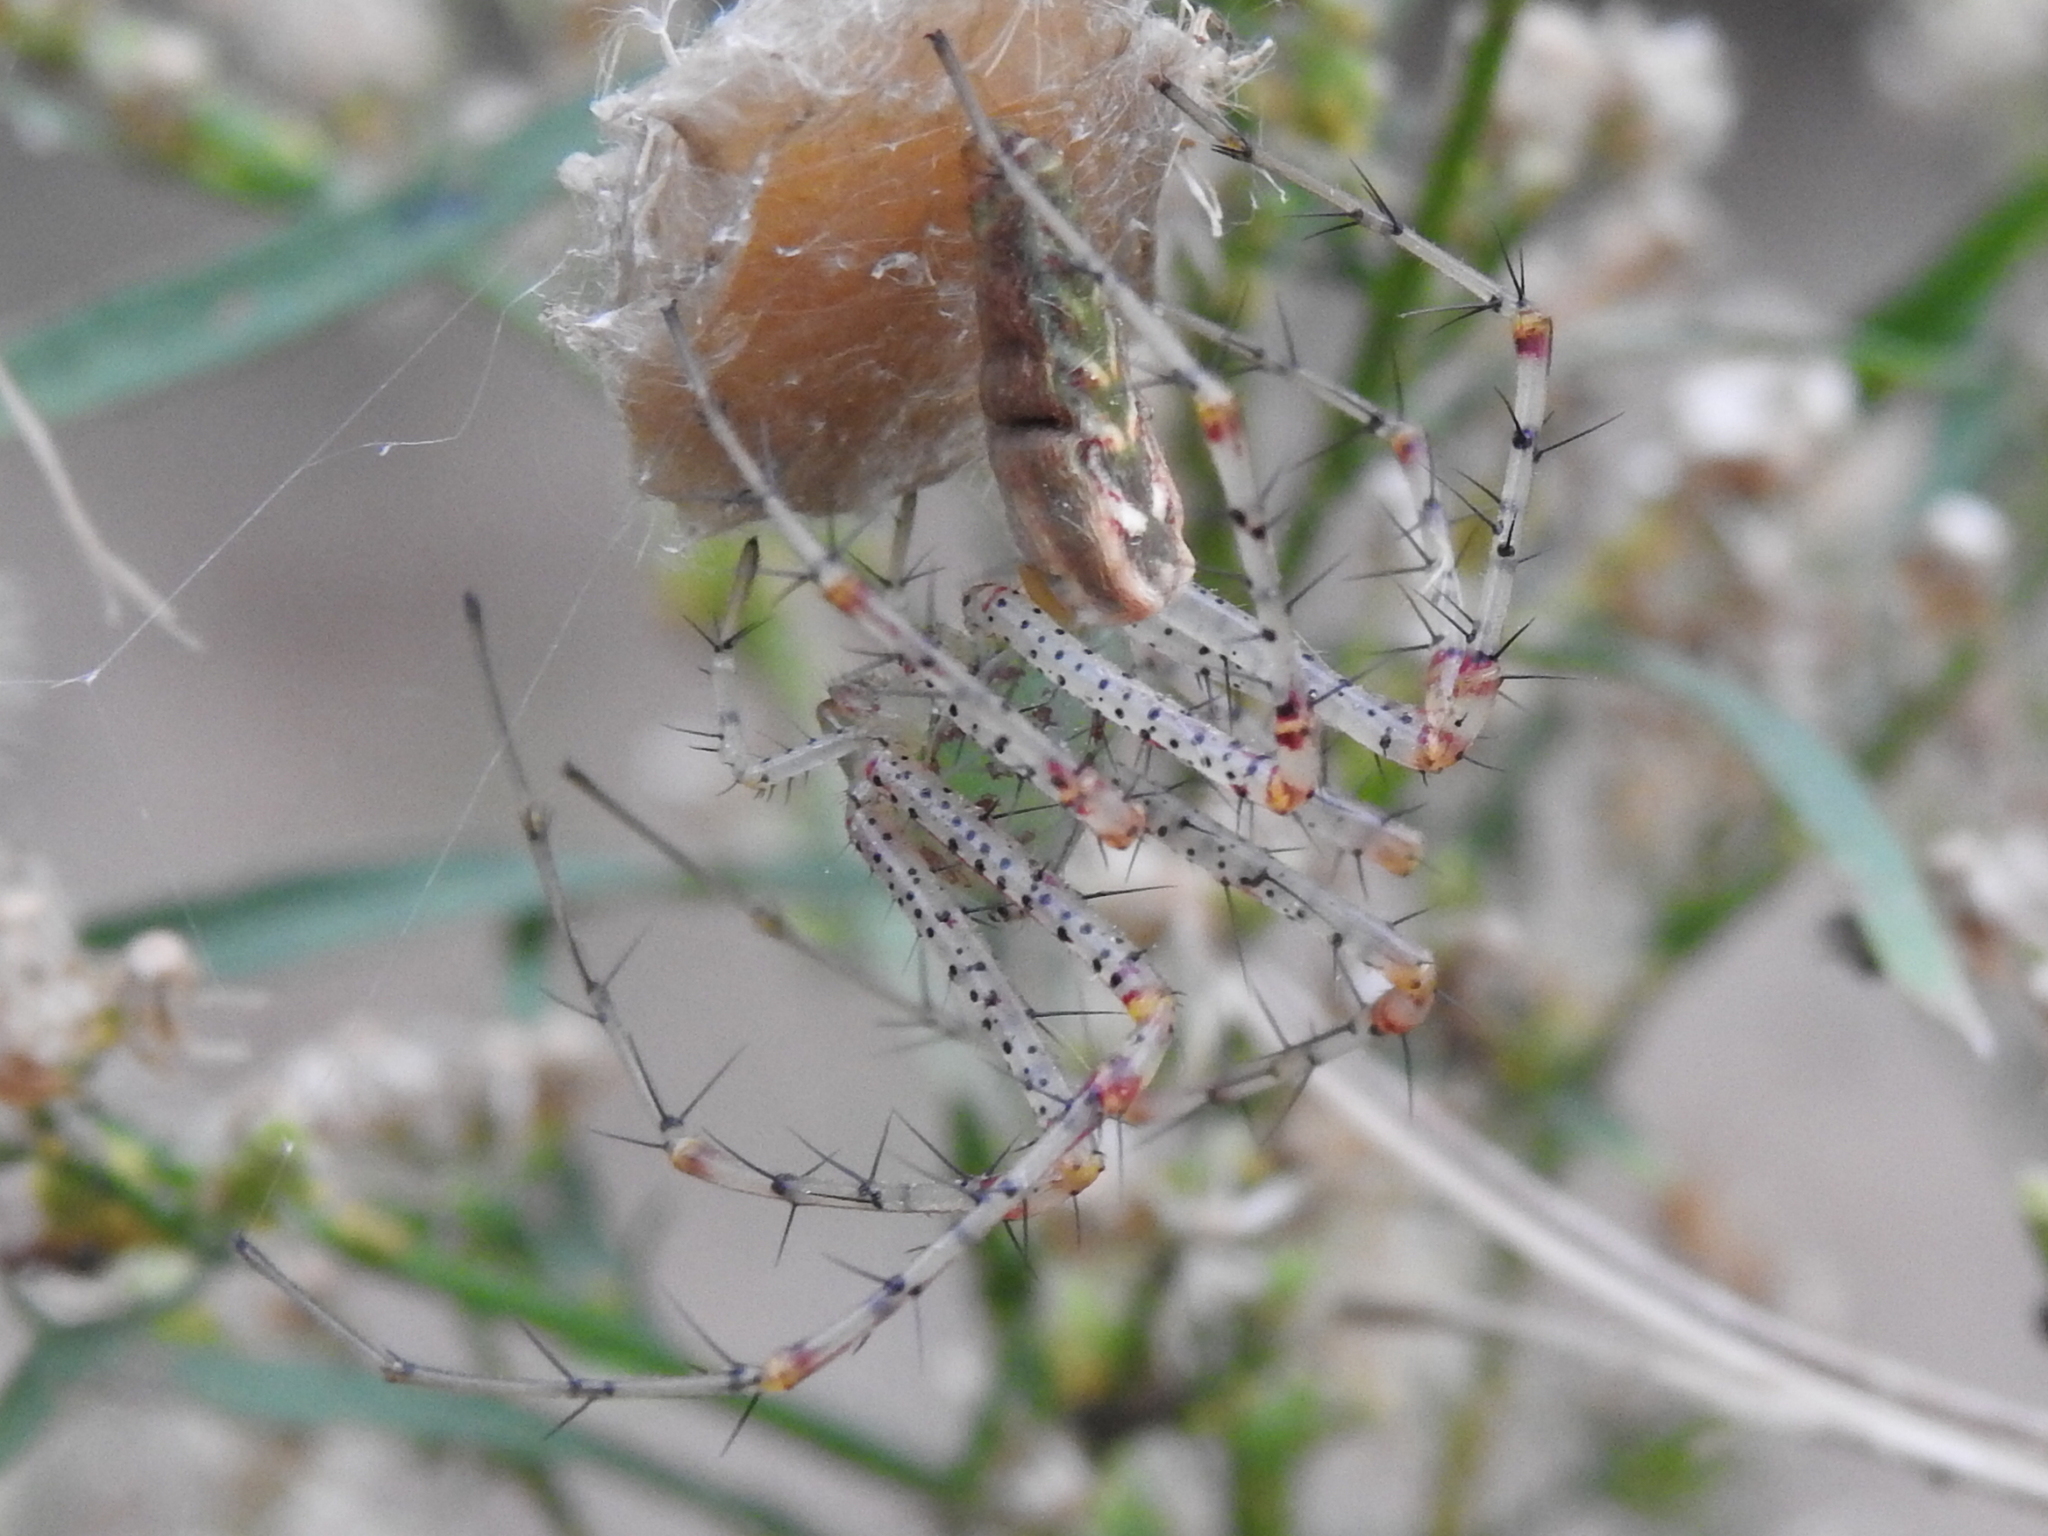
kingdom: Animalia
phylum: Arthropoda
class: Arachnida
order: Araneae
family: Oxyopidae
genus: Peucetia
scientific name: Peucetia viridans
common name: Lynx spiders
